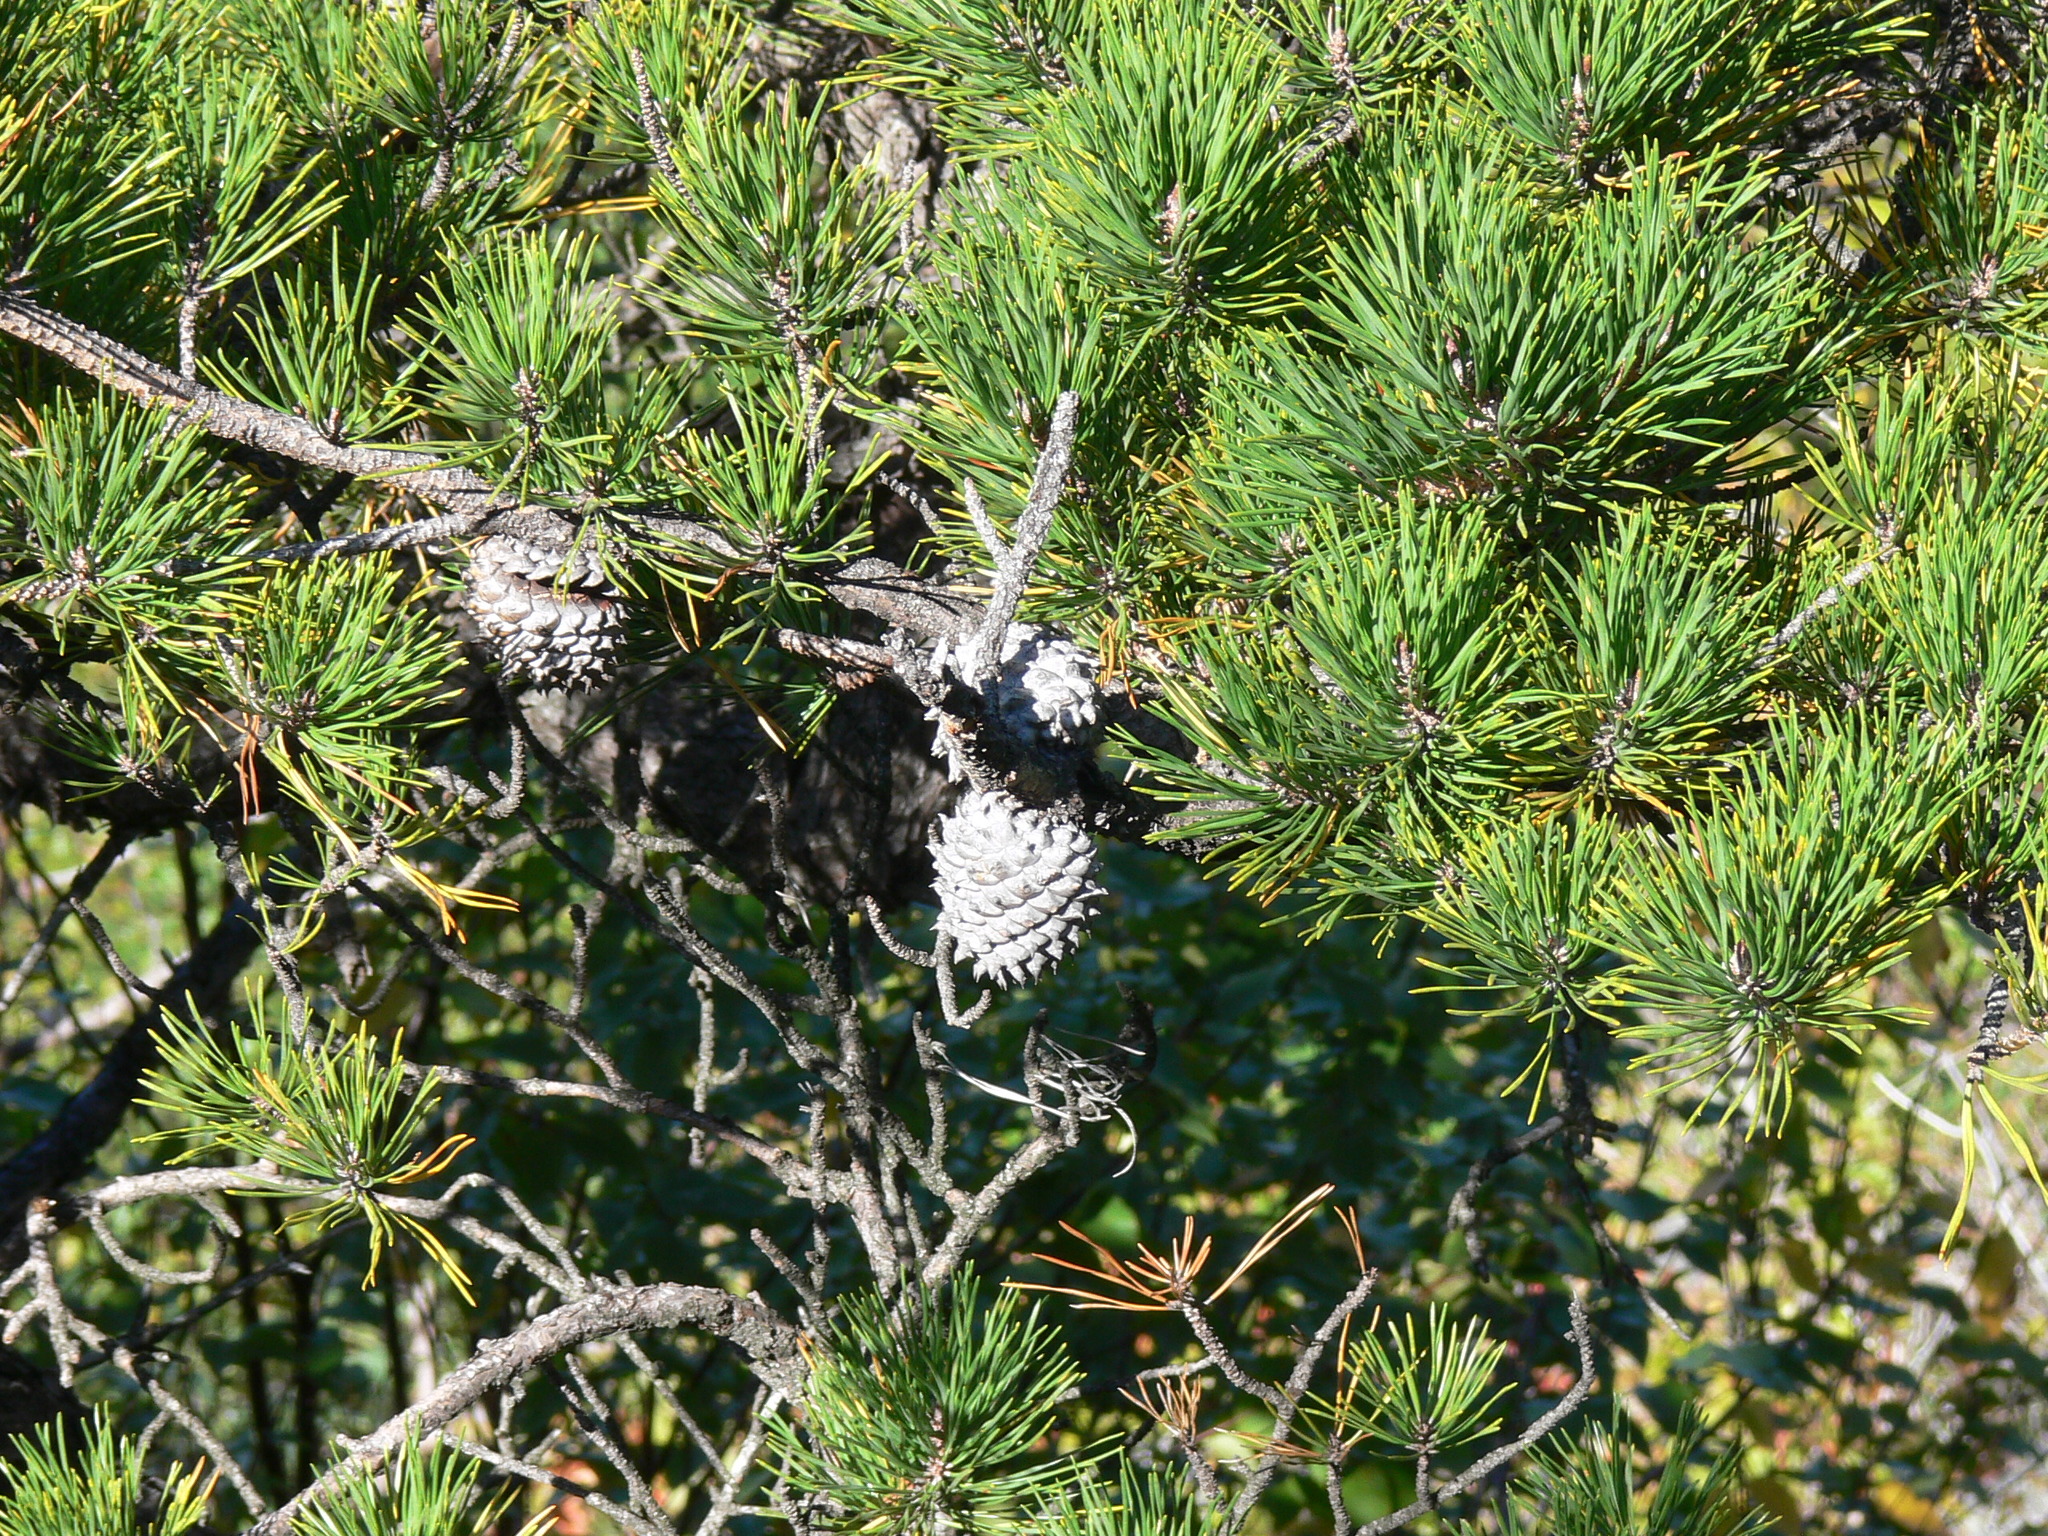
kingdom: Plantae
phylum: Tracheophyta
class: Pinopsida
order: Pinales
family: Pinaceae
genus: Pinus
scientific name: Pinus pungens
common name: Hickory pine
